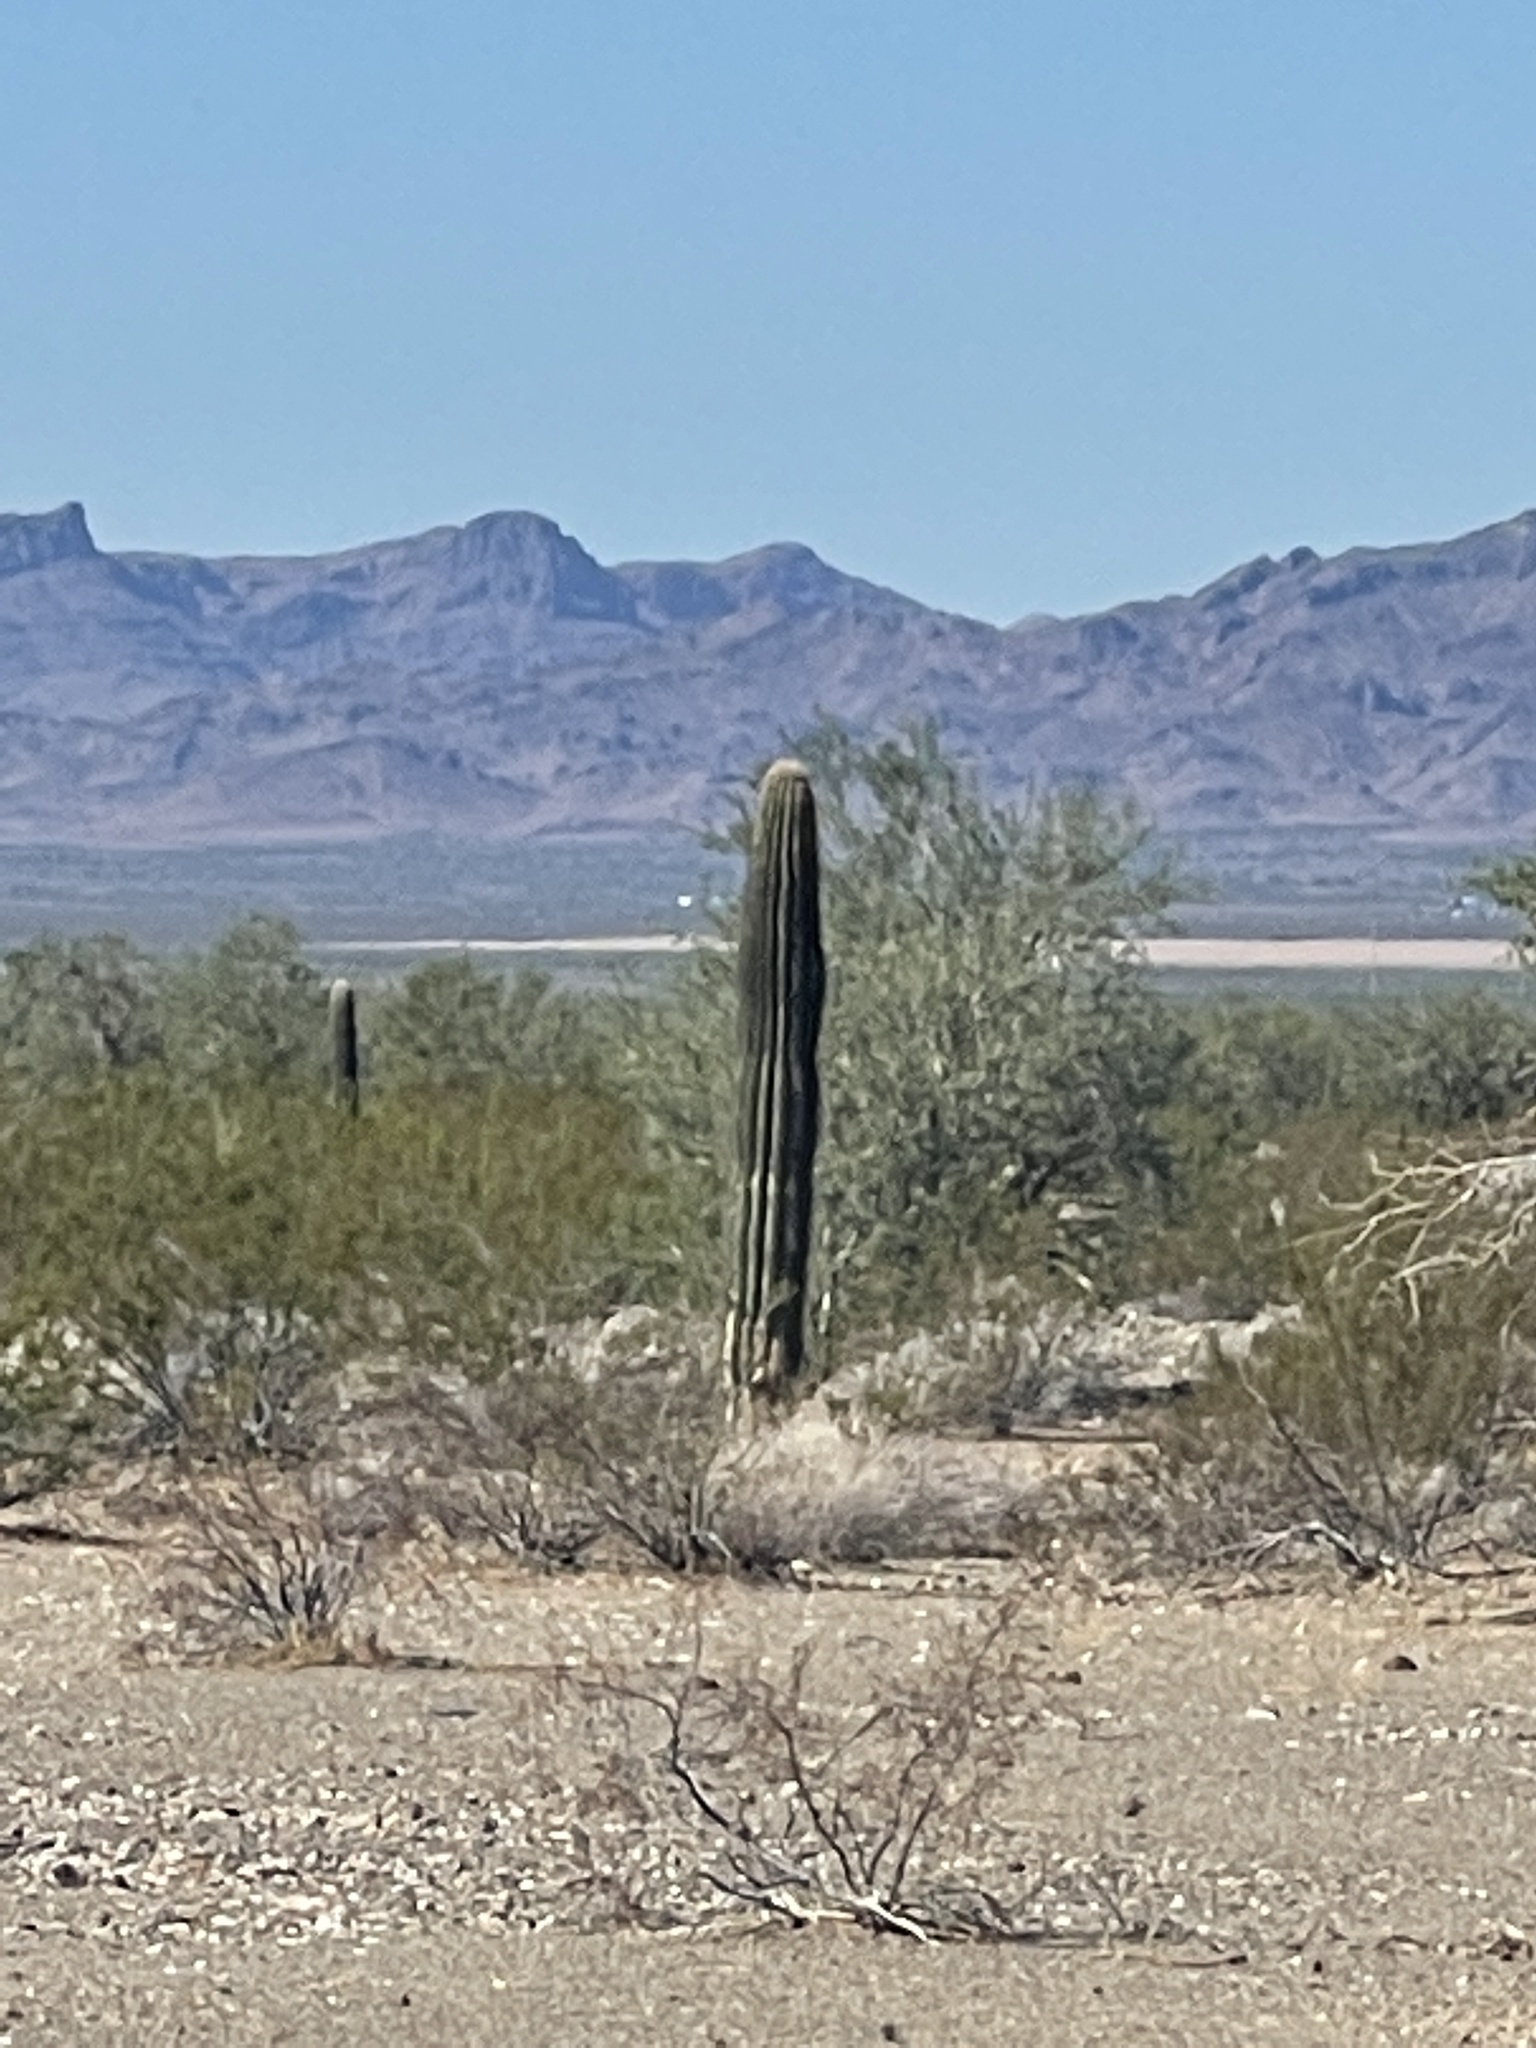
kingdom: Plantae
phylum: Tracheophyta
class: Magnoliopsida
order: Caryophyllales
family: Cactaceae
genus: Carnegiea
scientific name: Carnegiea gigantea
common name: Saguaro
